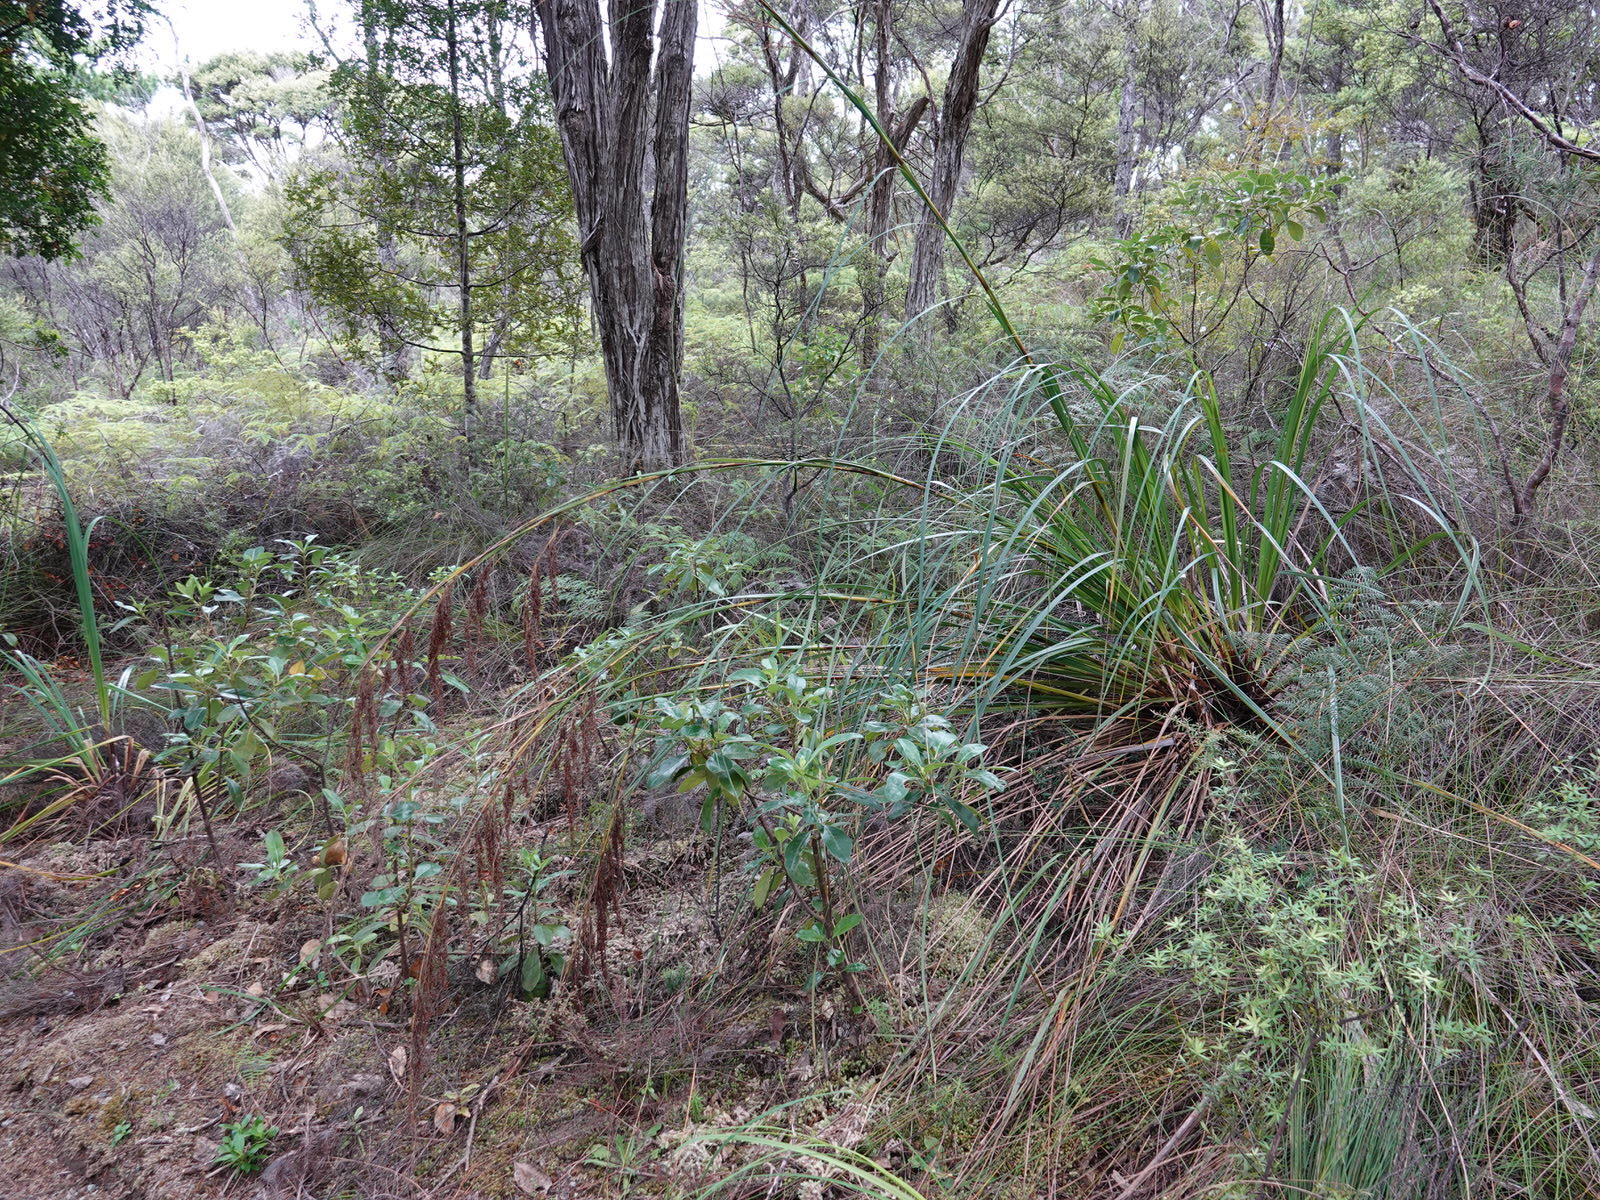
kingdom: Plantae
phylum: Tracheophyta
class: Liliopsida
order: Poales
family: Cyperaceae
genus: Gahnia
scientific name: Gahnia setifolia
